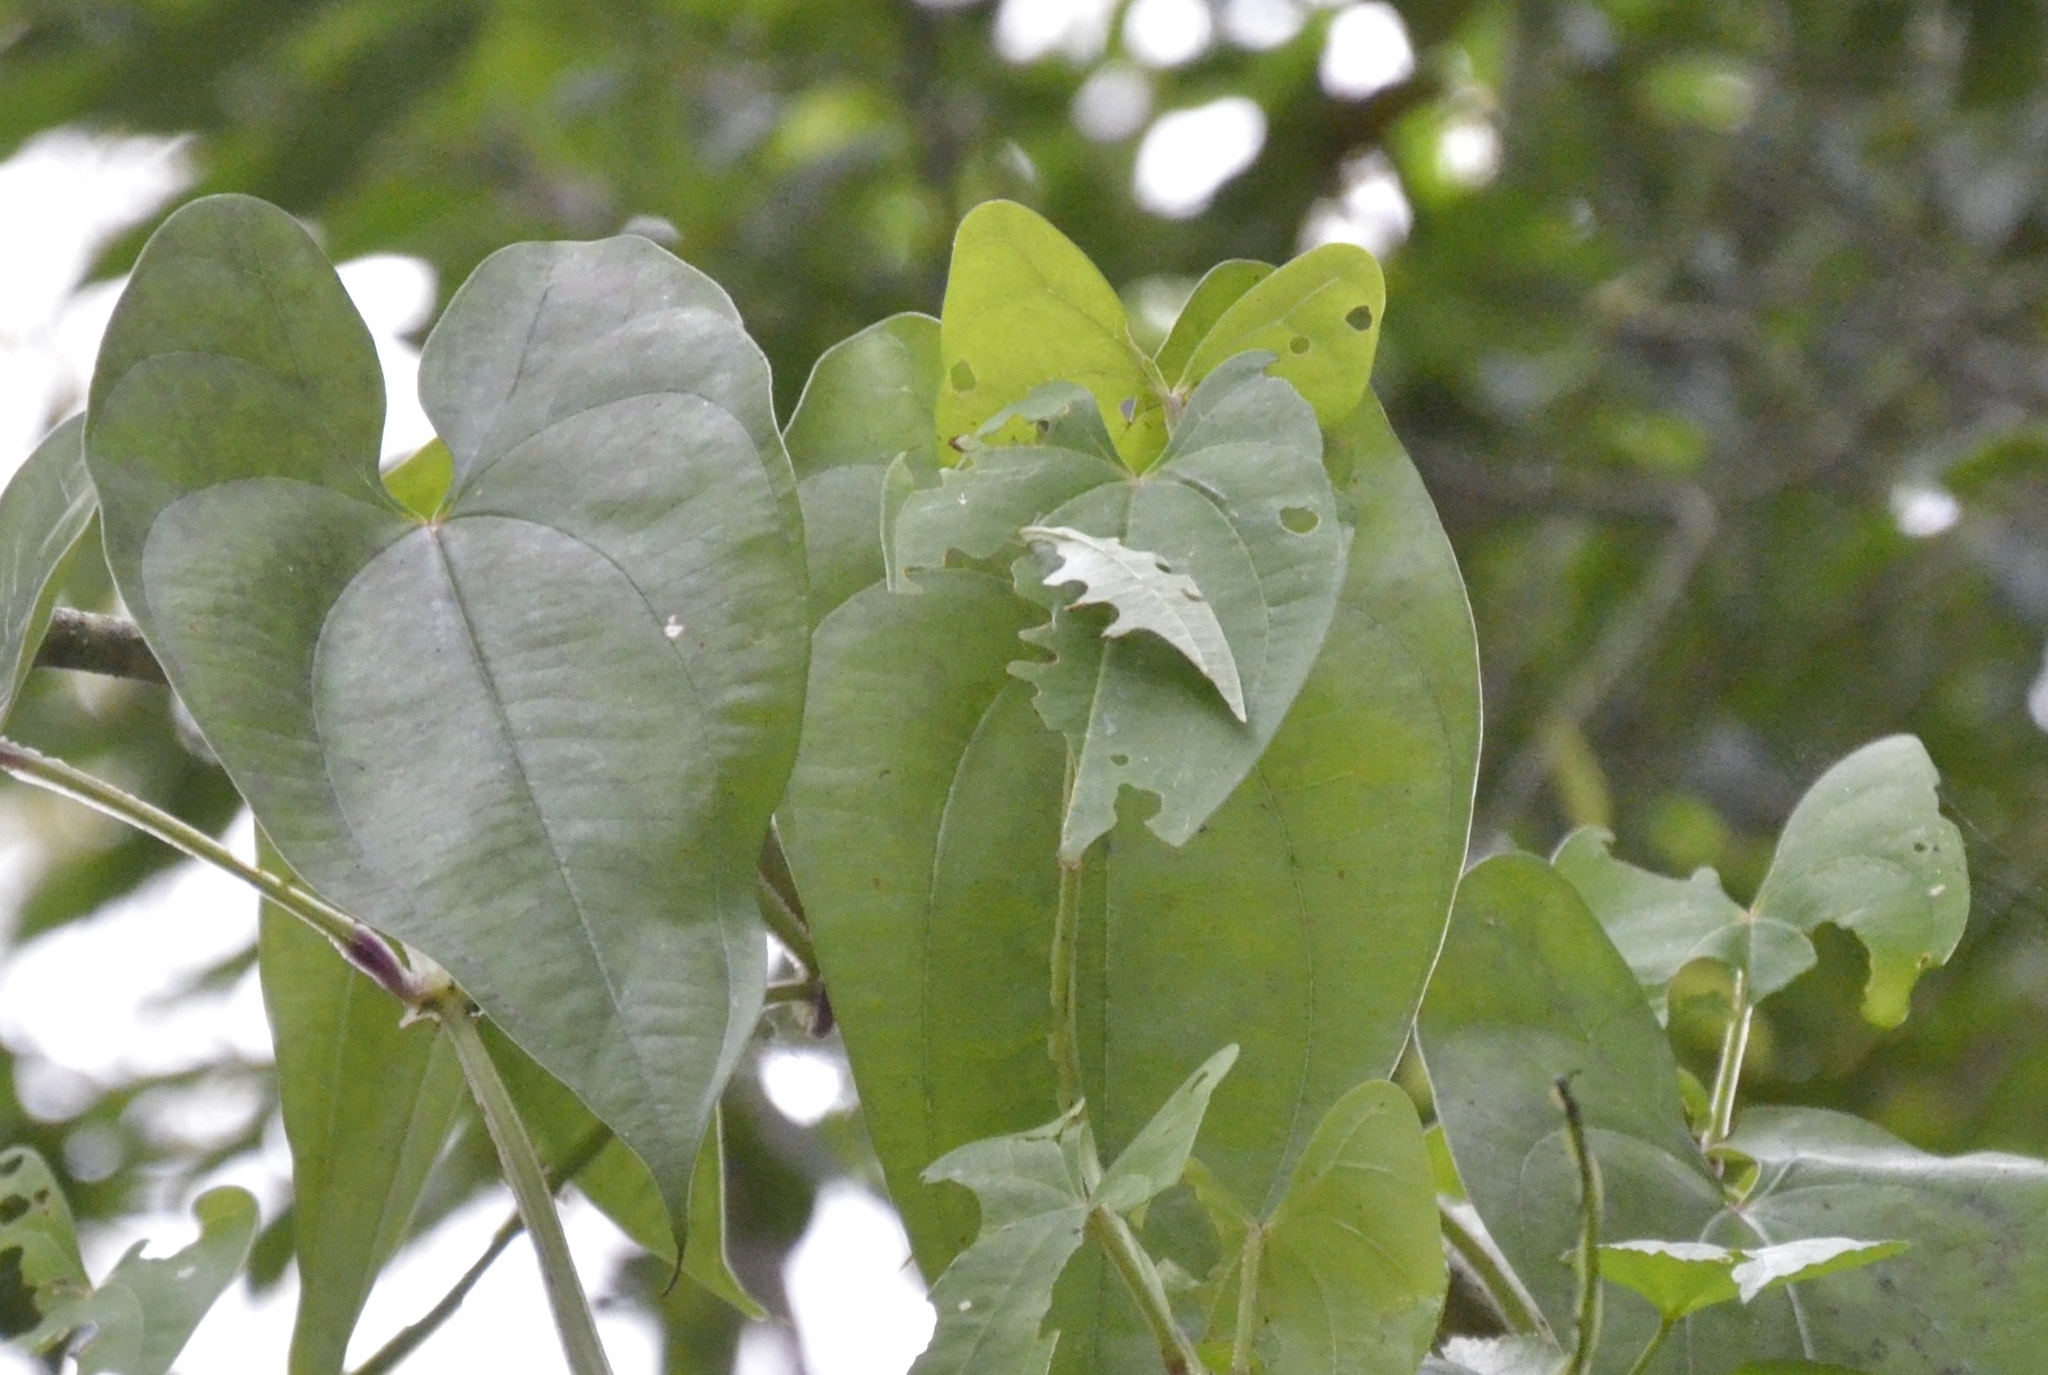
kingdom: Animalia
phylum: Arthropoda
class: Insecta
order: Lepidoptera
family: Hesperiidae
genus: Tagiades
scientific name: Tagiades litigiosa
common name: Water snow flat
